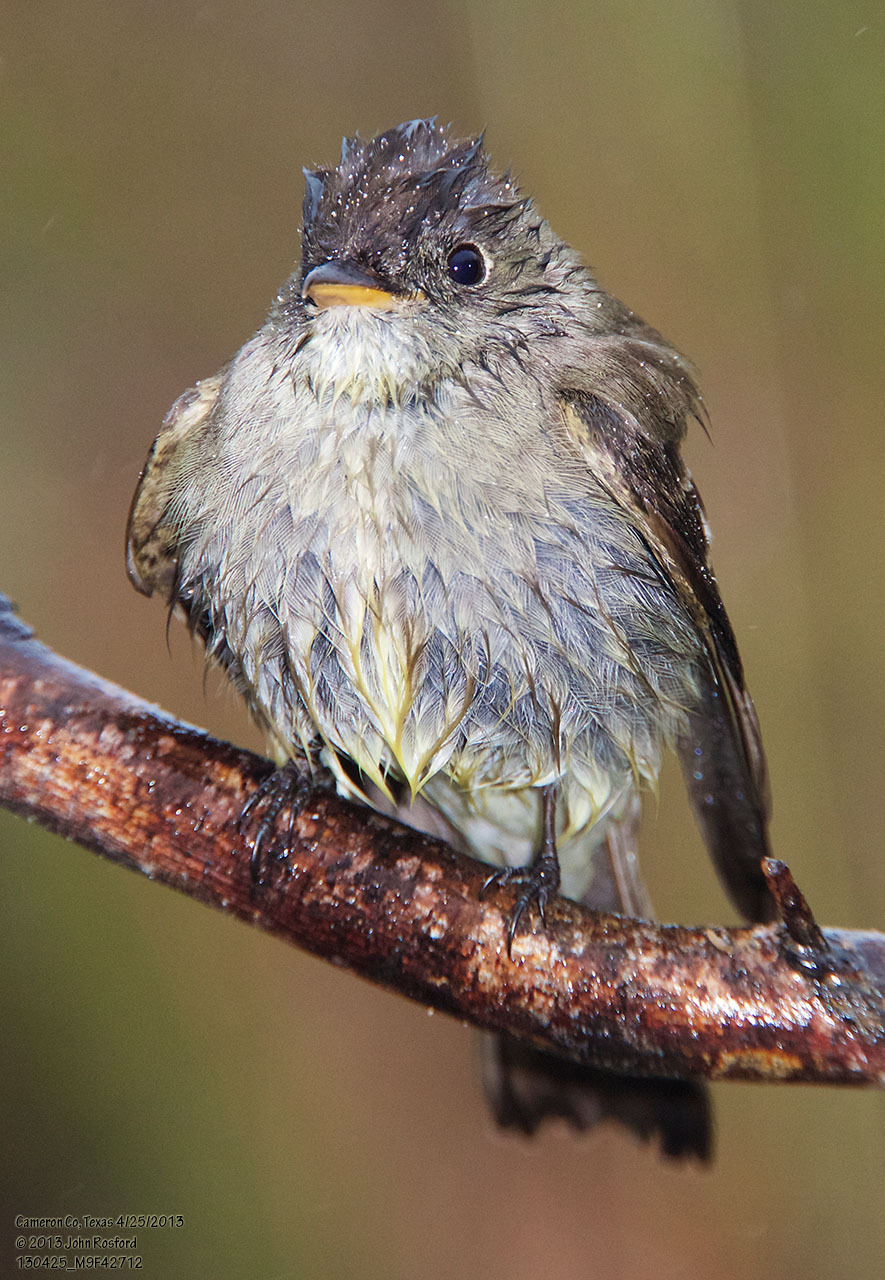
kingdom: Animalia
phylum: Chordata
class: Aves
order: Passeriformes
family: Tyrannidae
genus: Contopus
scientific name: Contopus virens
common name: Eastern wood-pewee
